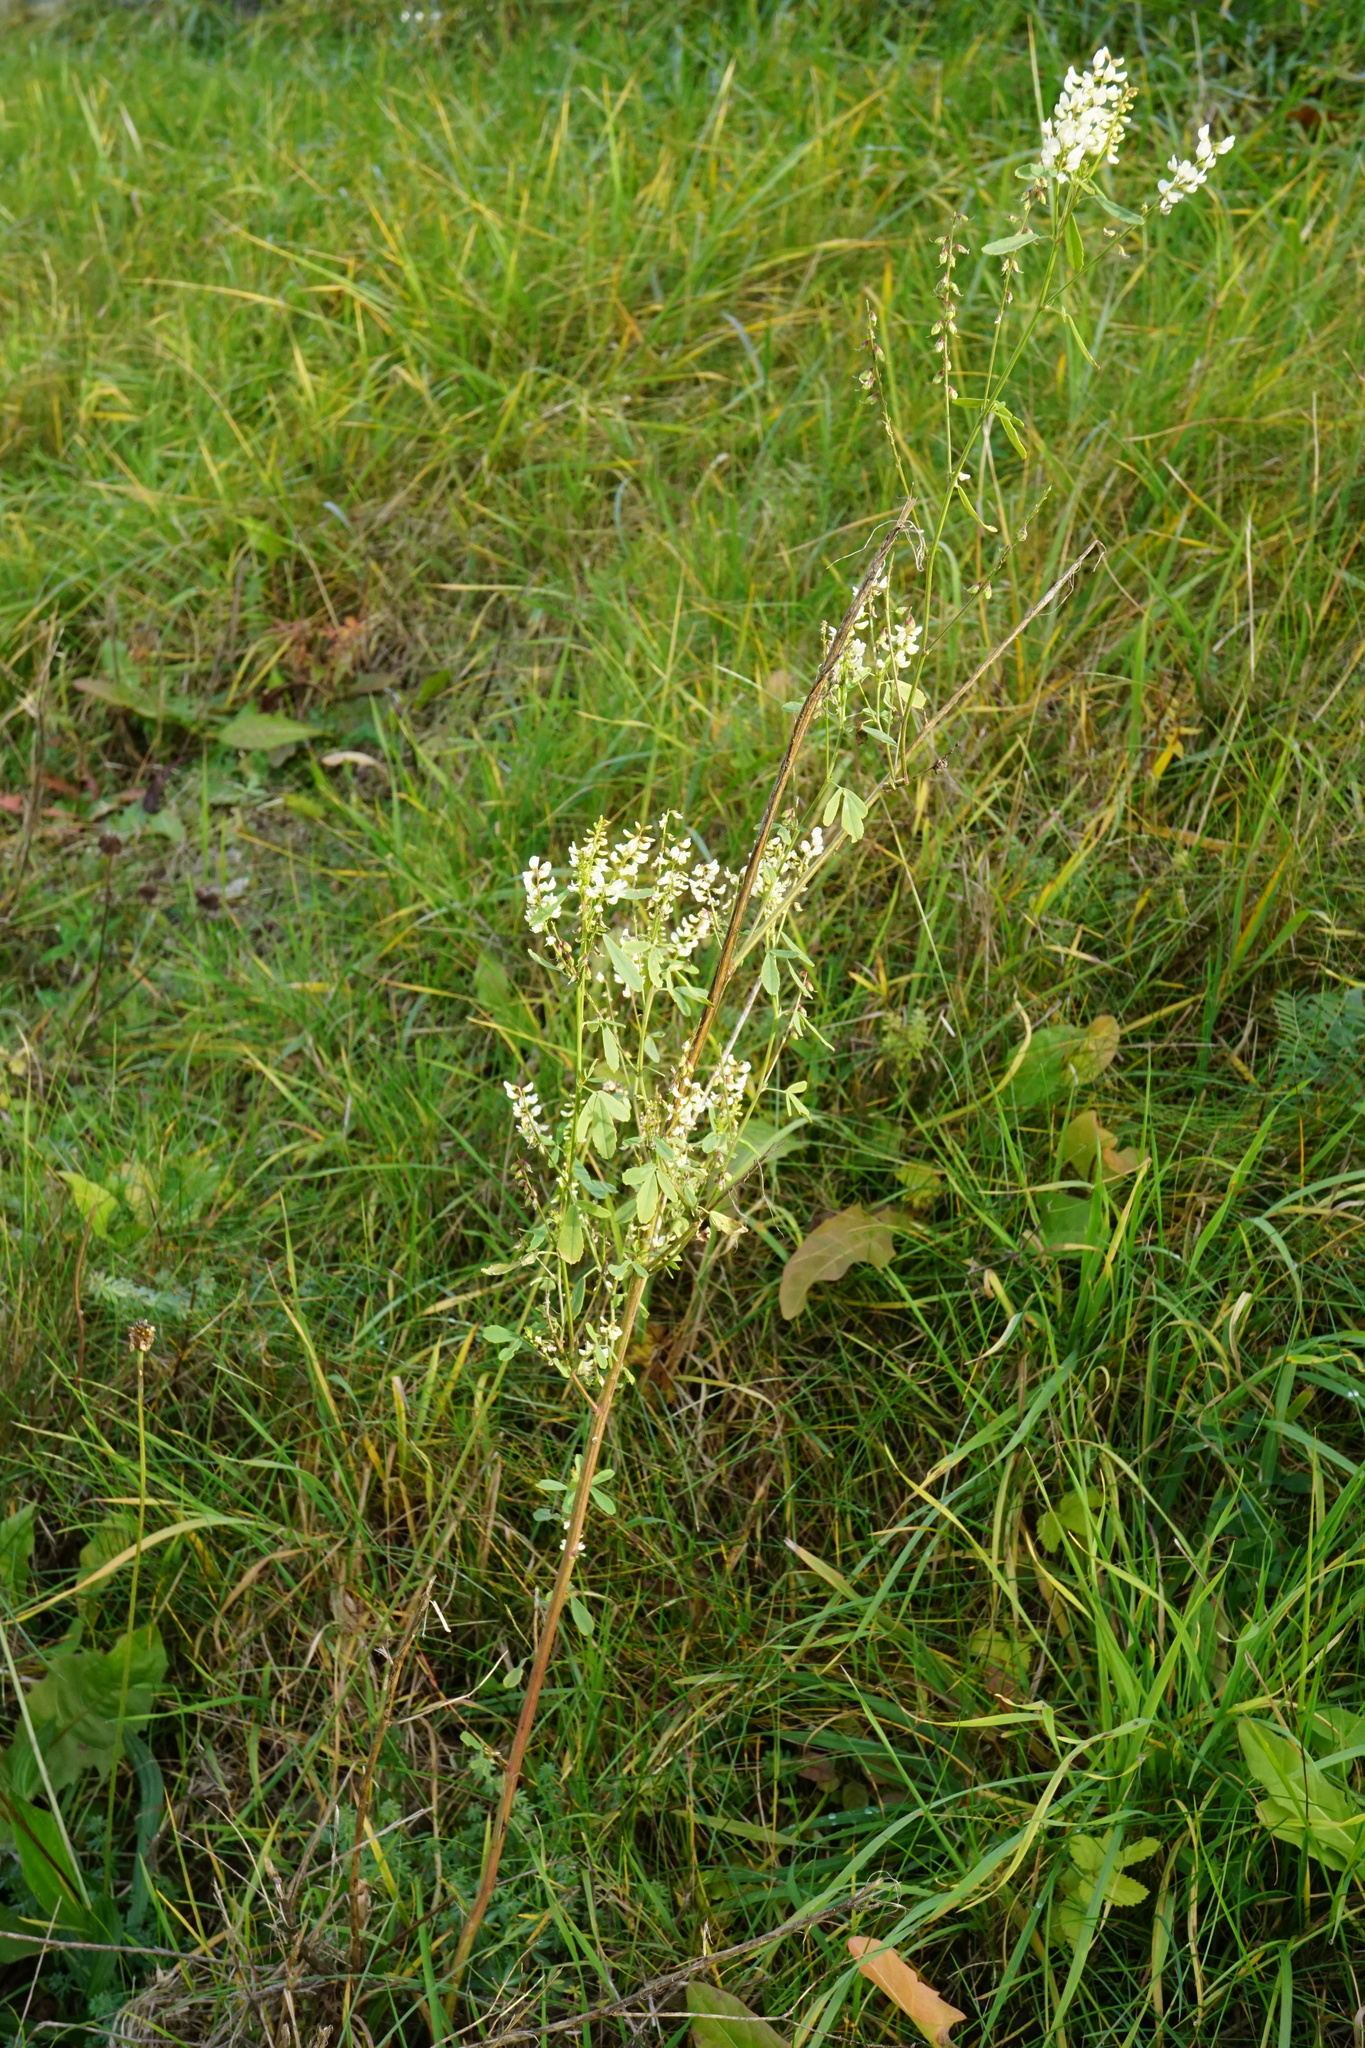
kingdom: Plantae
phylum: Tracheophyta
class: Magnoliopsida
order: Fabales
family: Fabaceae
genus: Melilotus
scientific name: Melilotus albus
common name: White melilot
